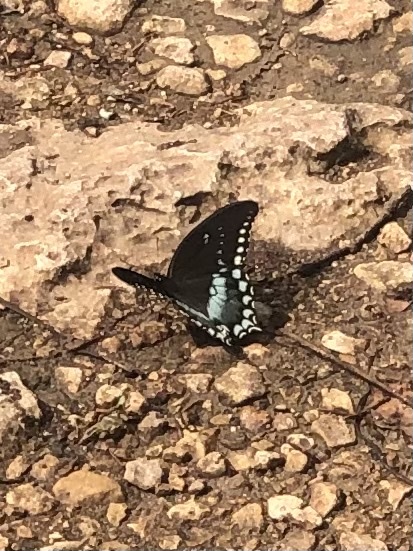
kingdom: Animalia
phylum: Arthropoda
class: Insecta
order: Lepidoptera
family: Papilionidae
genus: Papilio
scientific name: Papilio troilus
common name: Spicebush swallowtail
